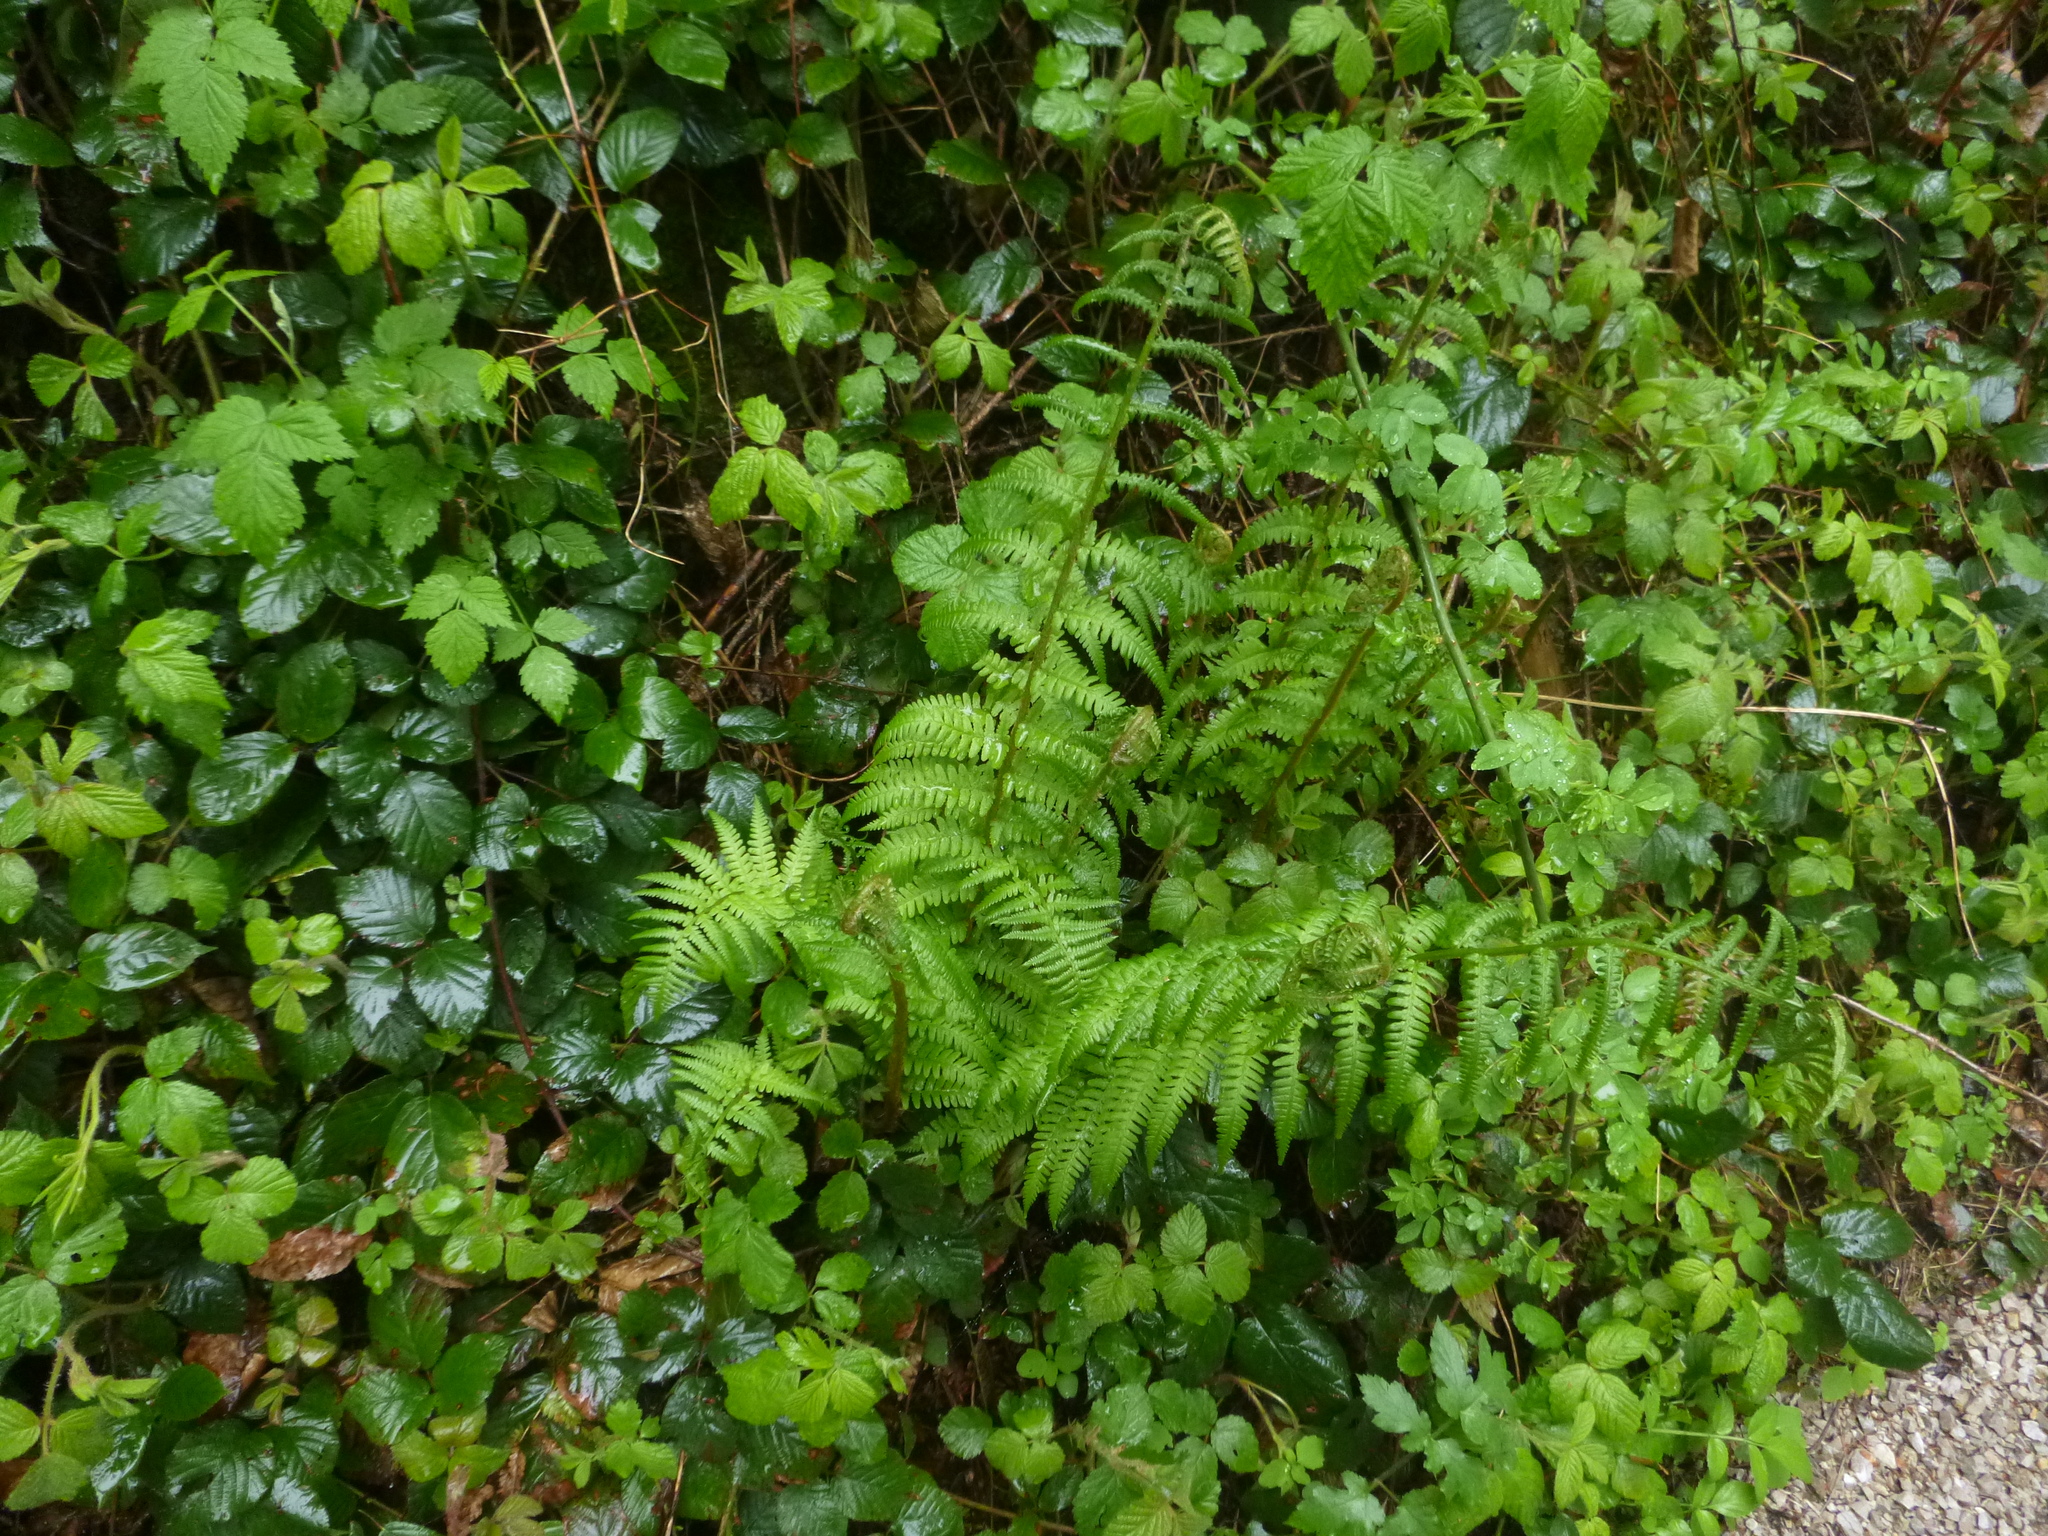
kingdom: Plantae
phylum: Tracheophyta
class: Polypodiopsida
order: Polypodiales
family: Dryopteridaceae
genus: Dryopteris
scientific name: Dryopteris filix-mas
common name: Male fern
